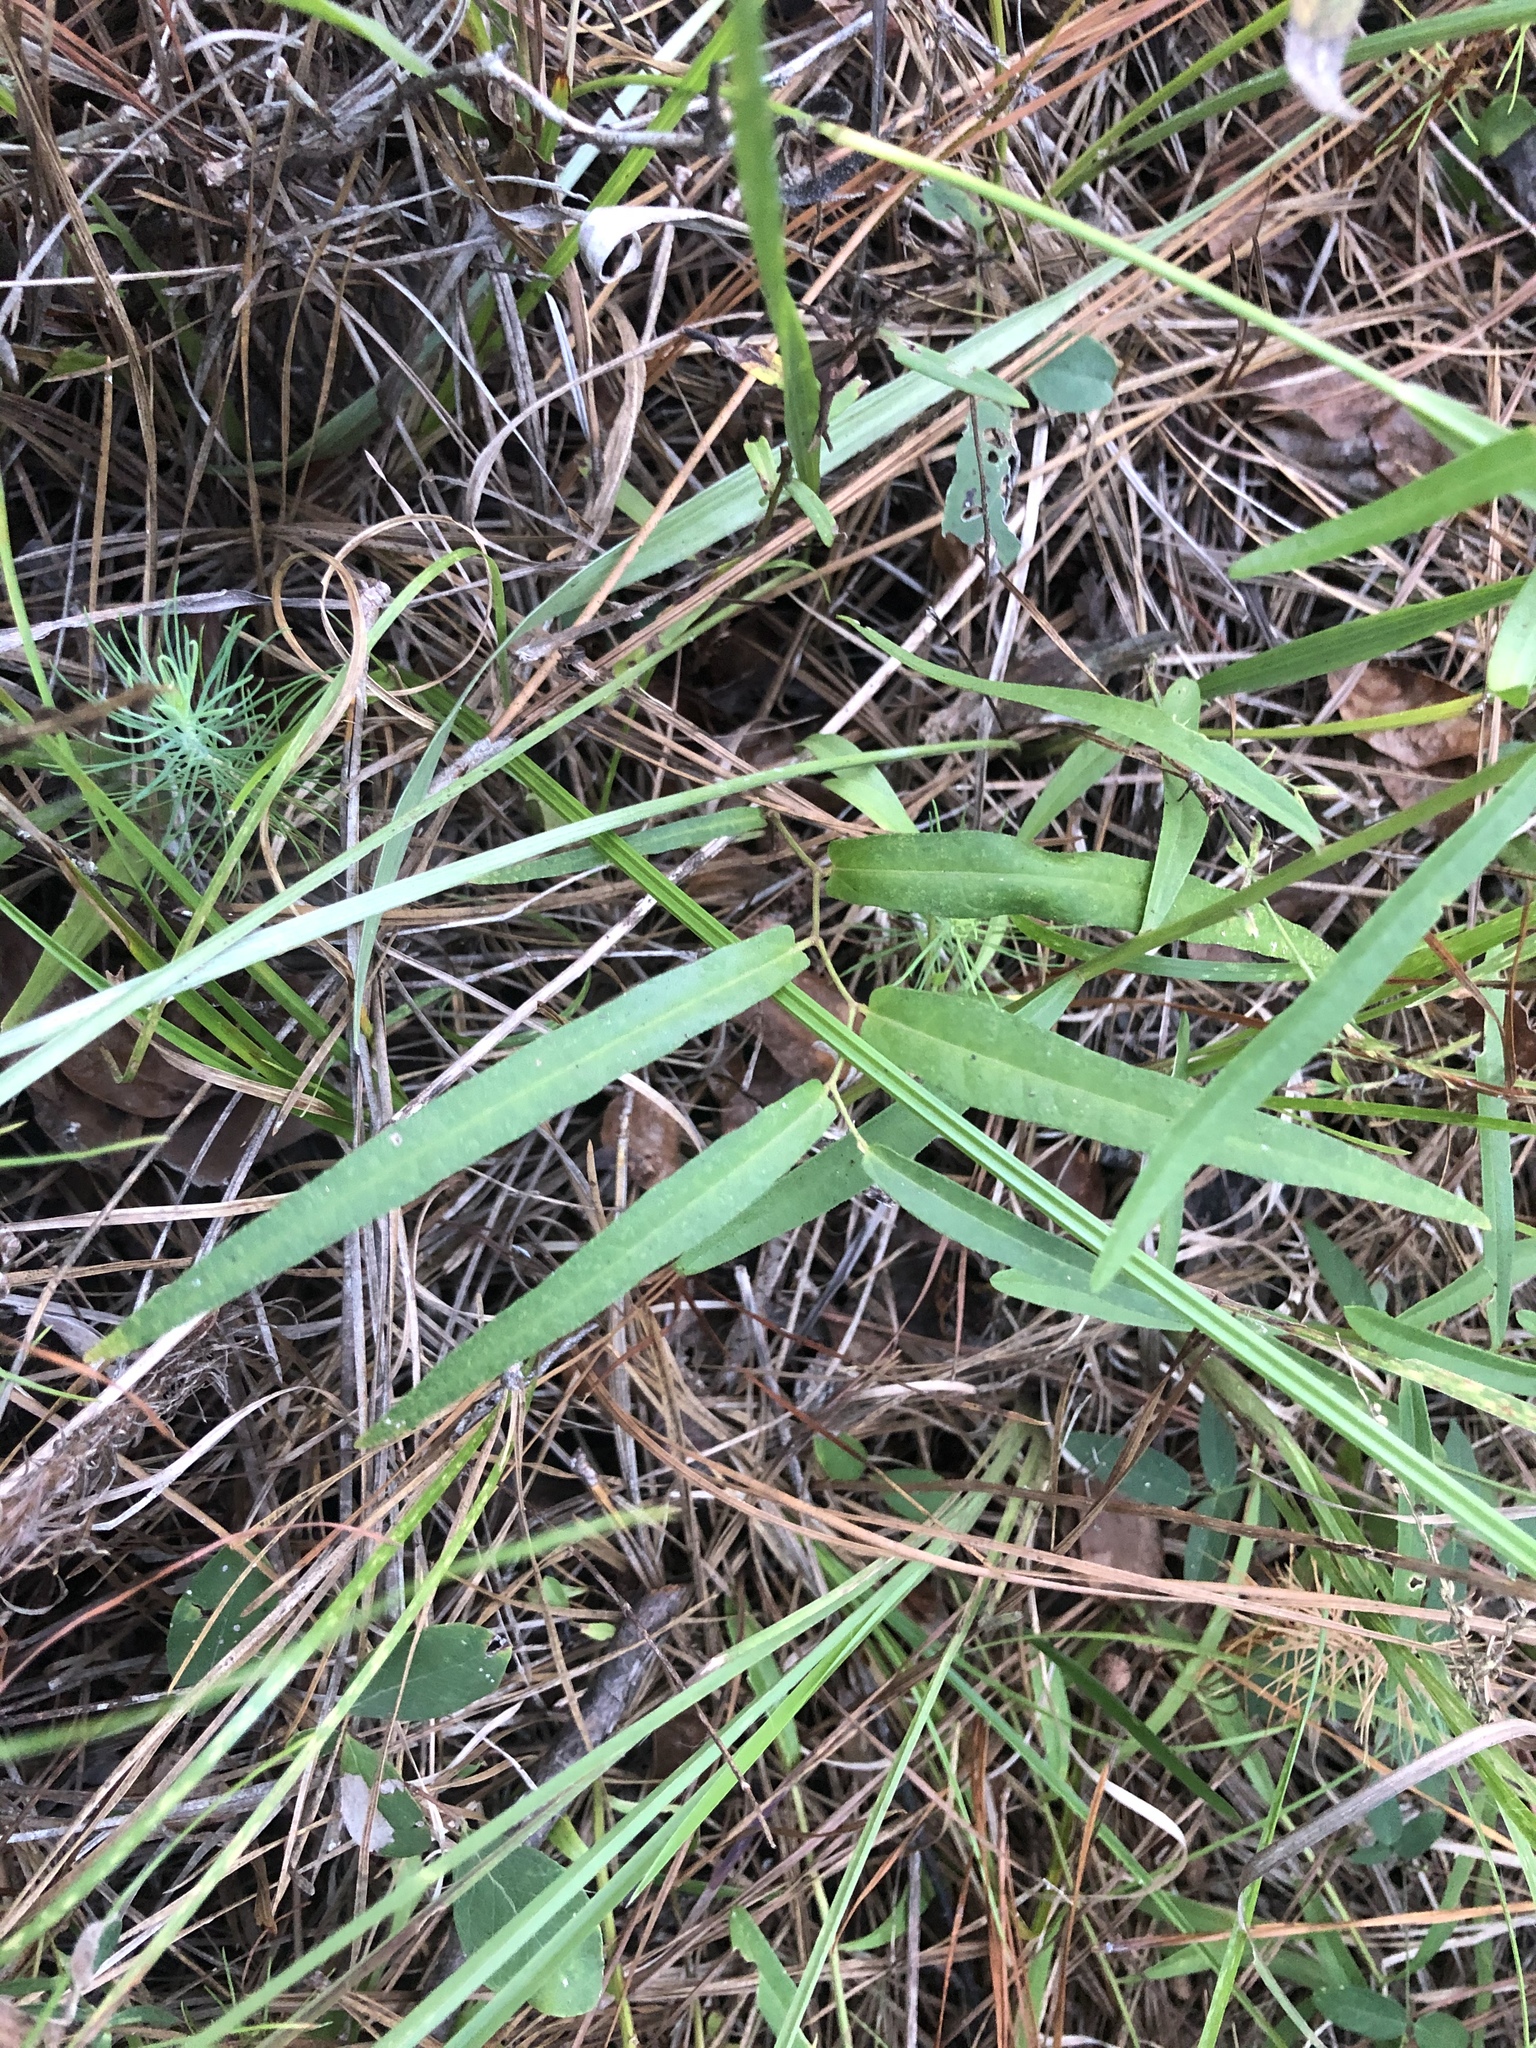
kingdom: Plantae
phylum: Tracheophyta
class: Magnoliopsida
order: Piperales
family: Aristolochiaceae
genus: Endodeca
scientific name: Endodeca serpentaria
